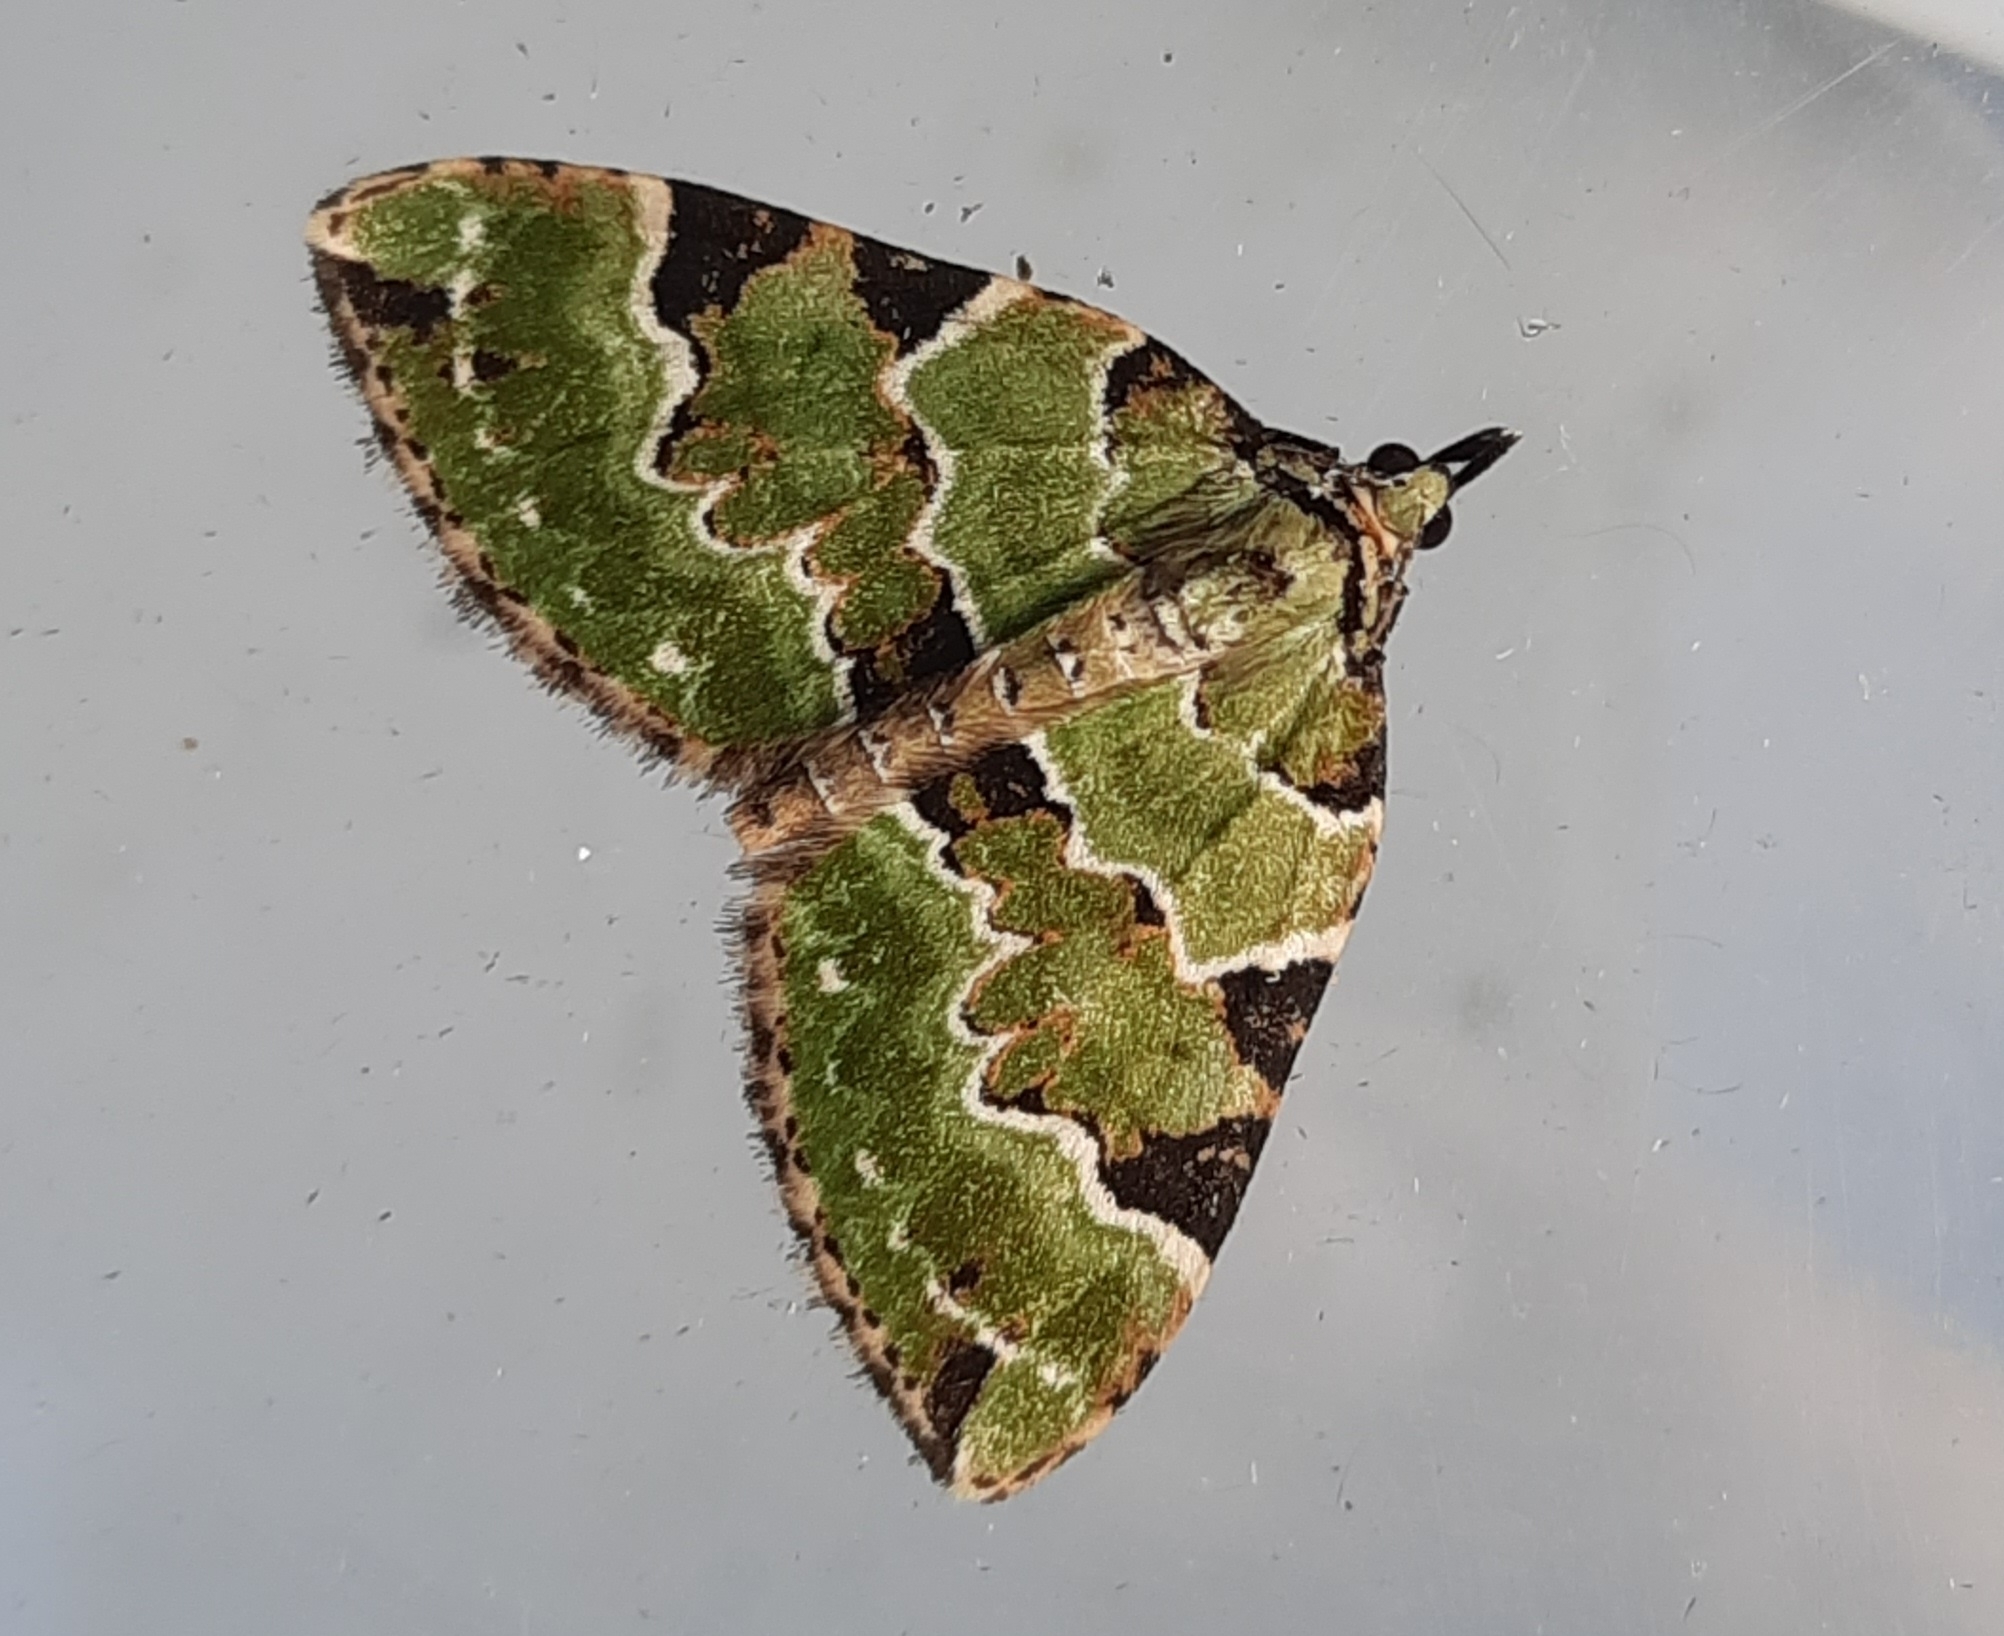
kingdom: Animalia
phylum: Arthropoda
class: Insecta
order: Lepidoptera
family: Geometridae
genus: Colostygia
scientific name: Colostygia pectinataria
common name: Green carpet
